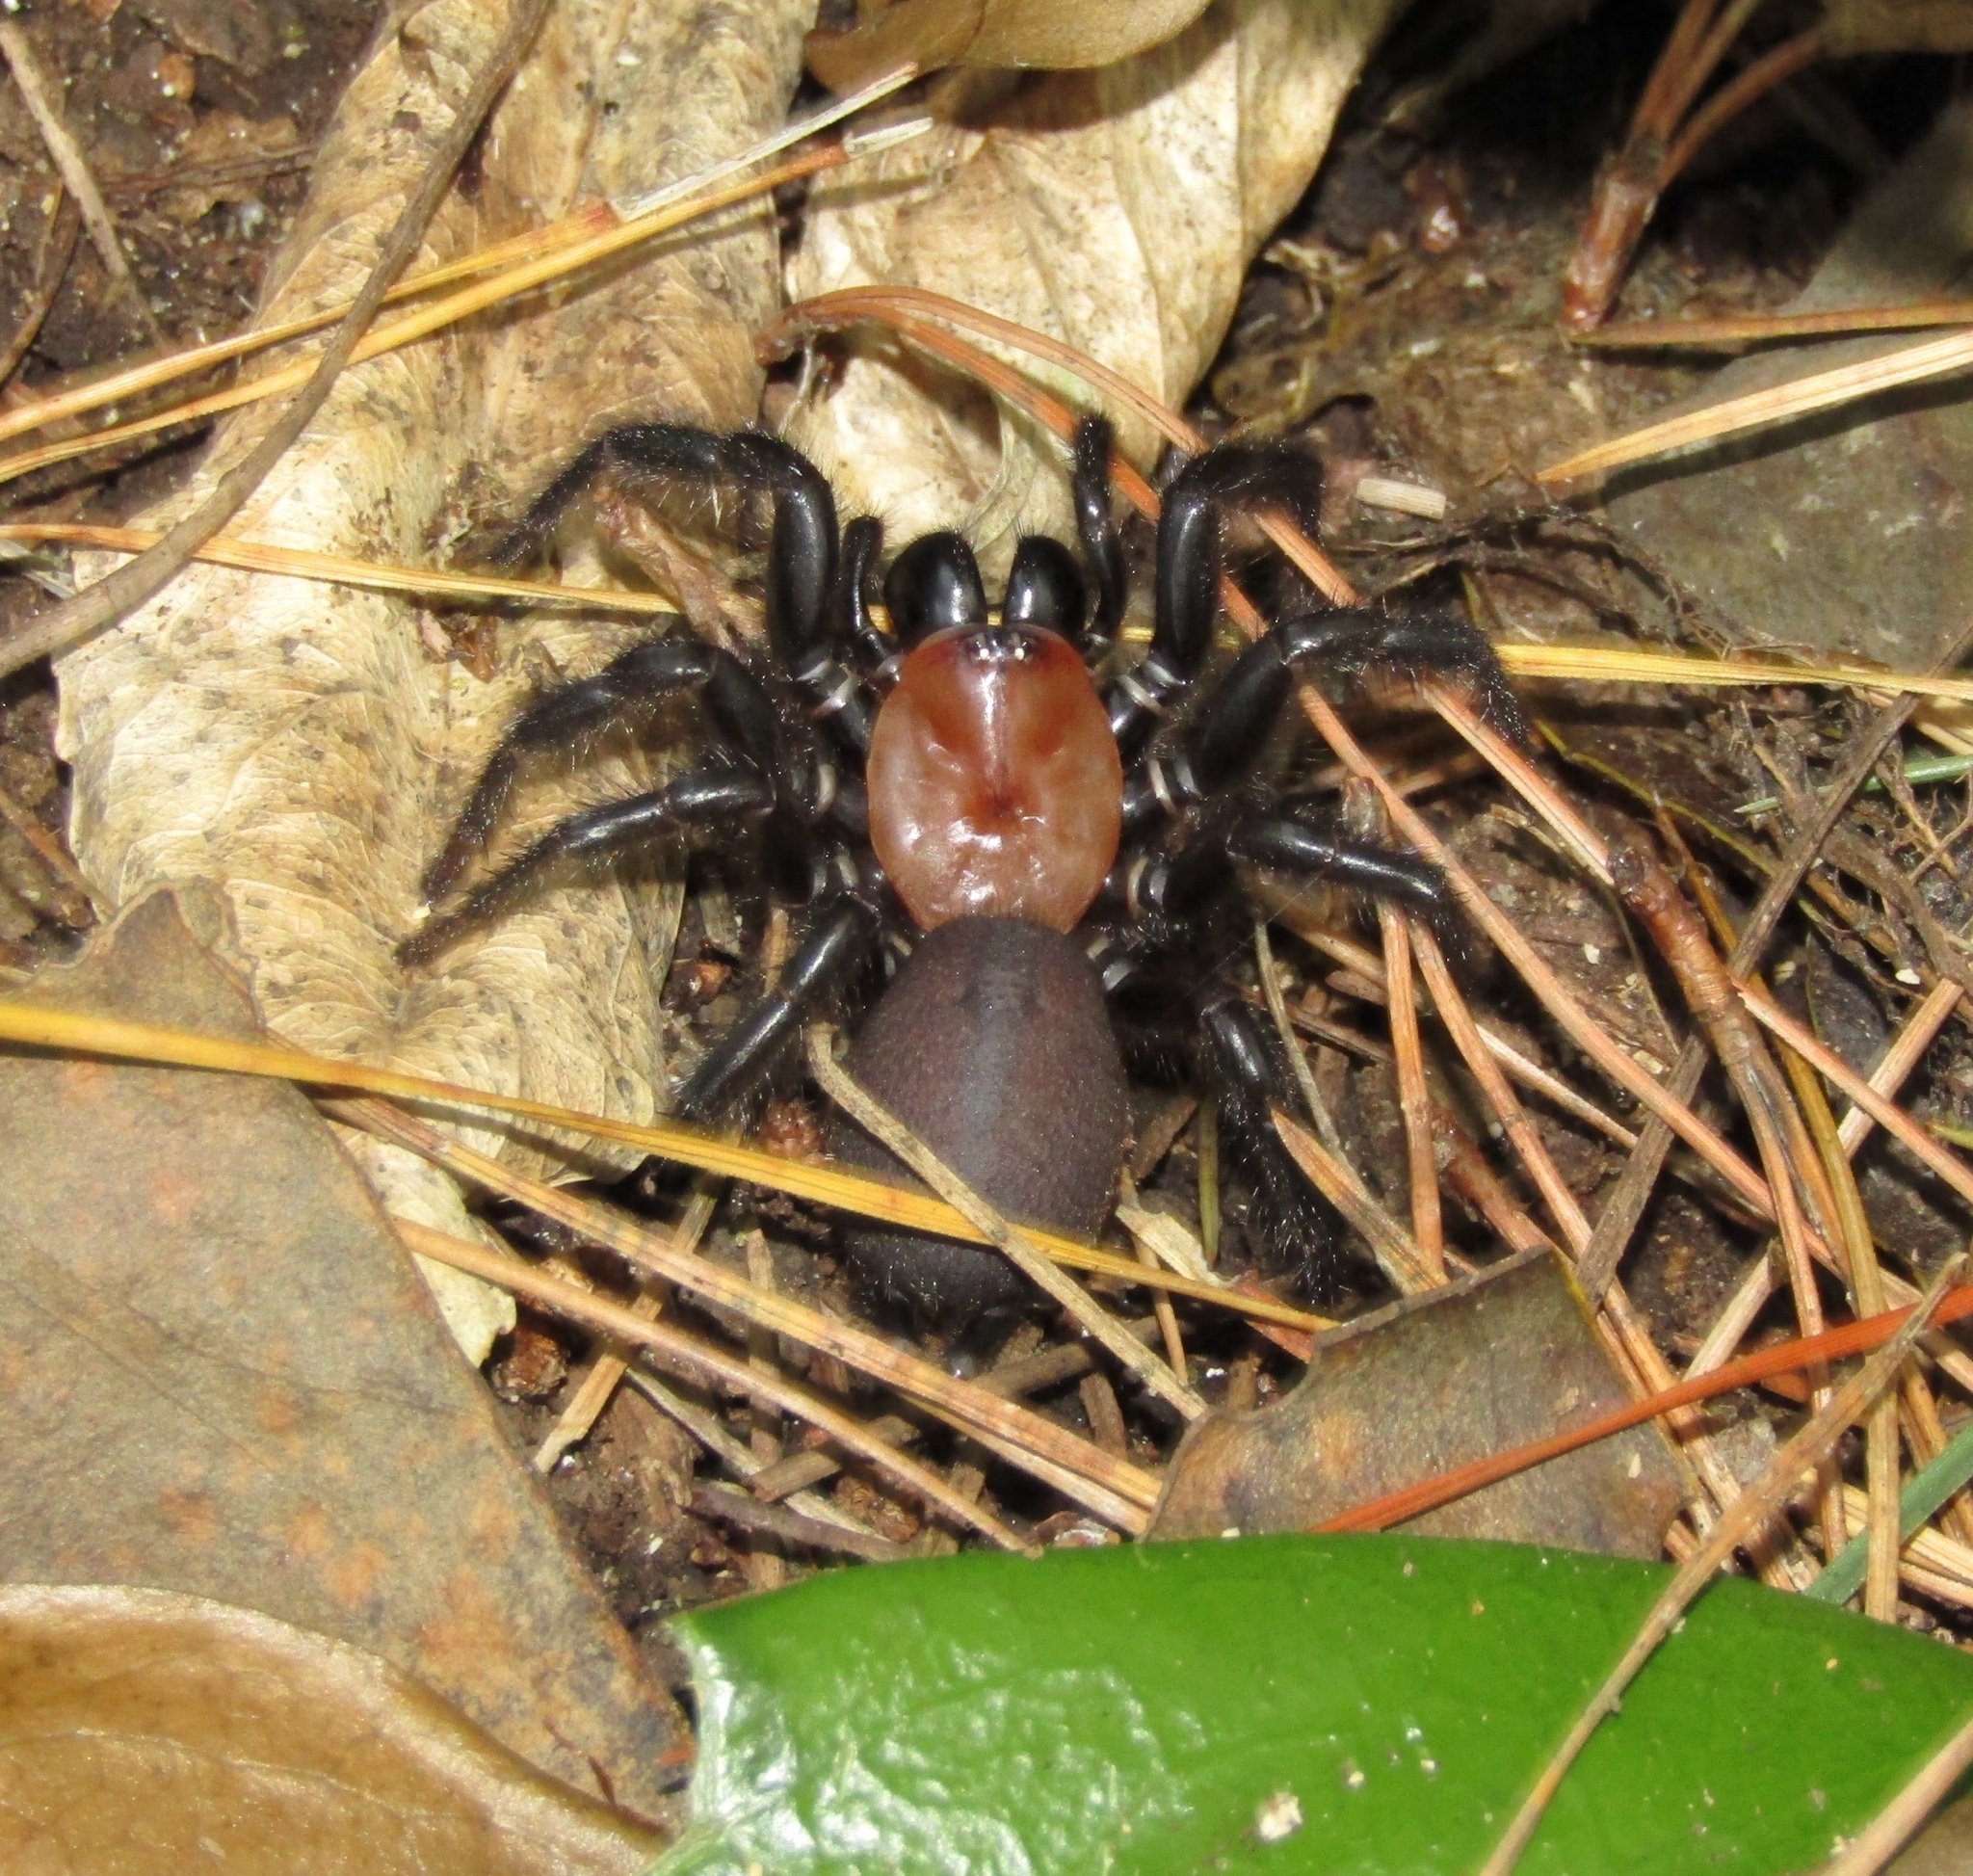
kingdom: Animalia
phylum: Arthropoda
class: Arachnida
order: Araneae
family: Porrhothelidae
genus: Porrhothele
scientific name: Porrhothele antipodiana
